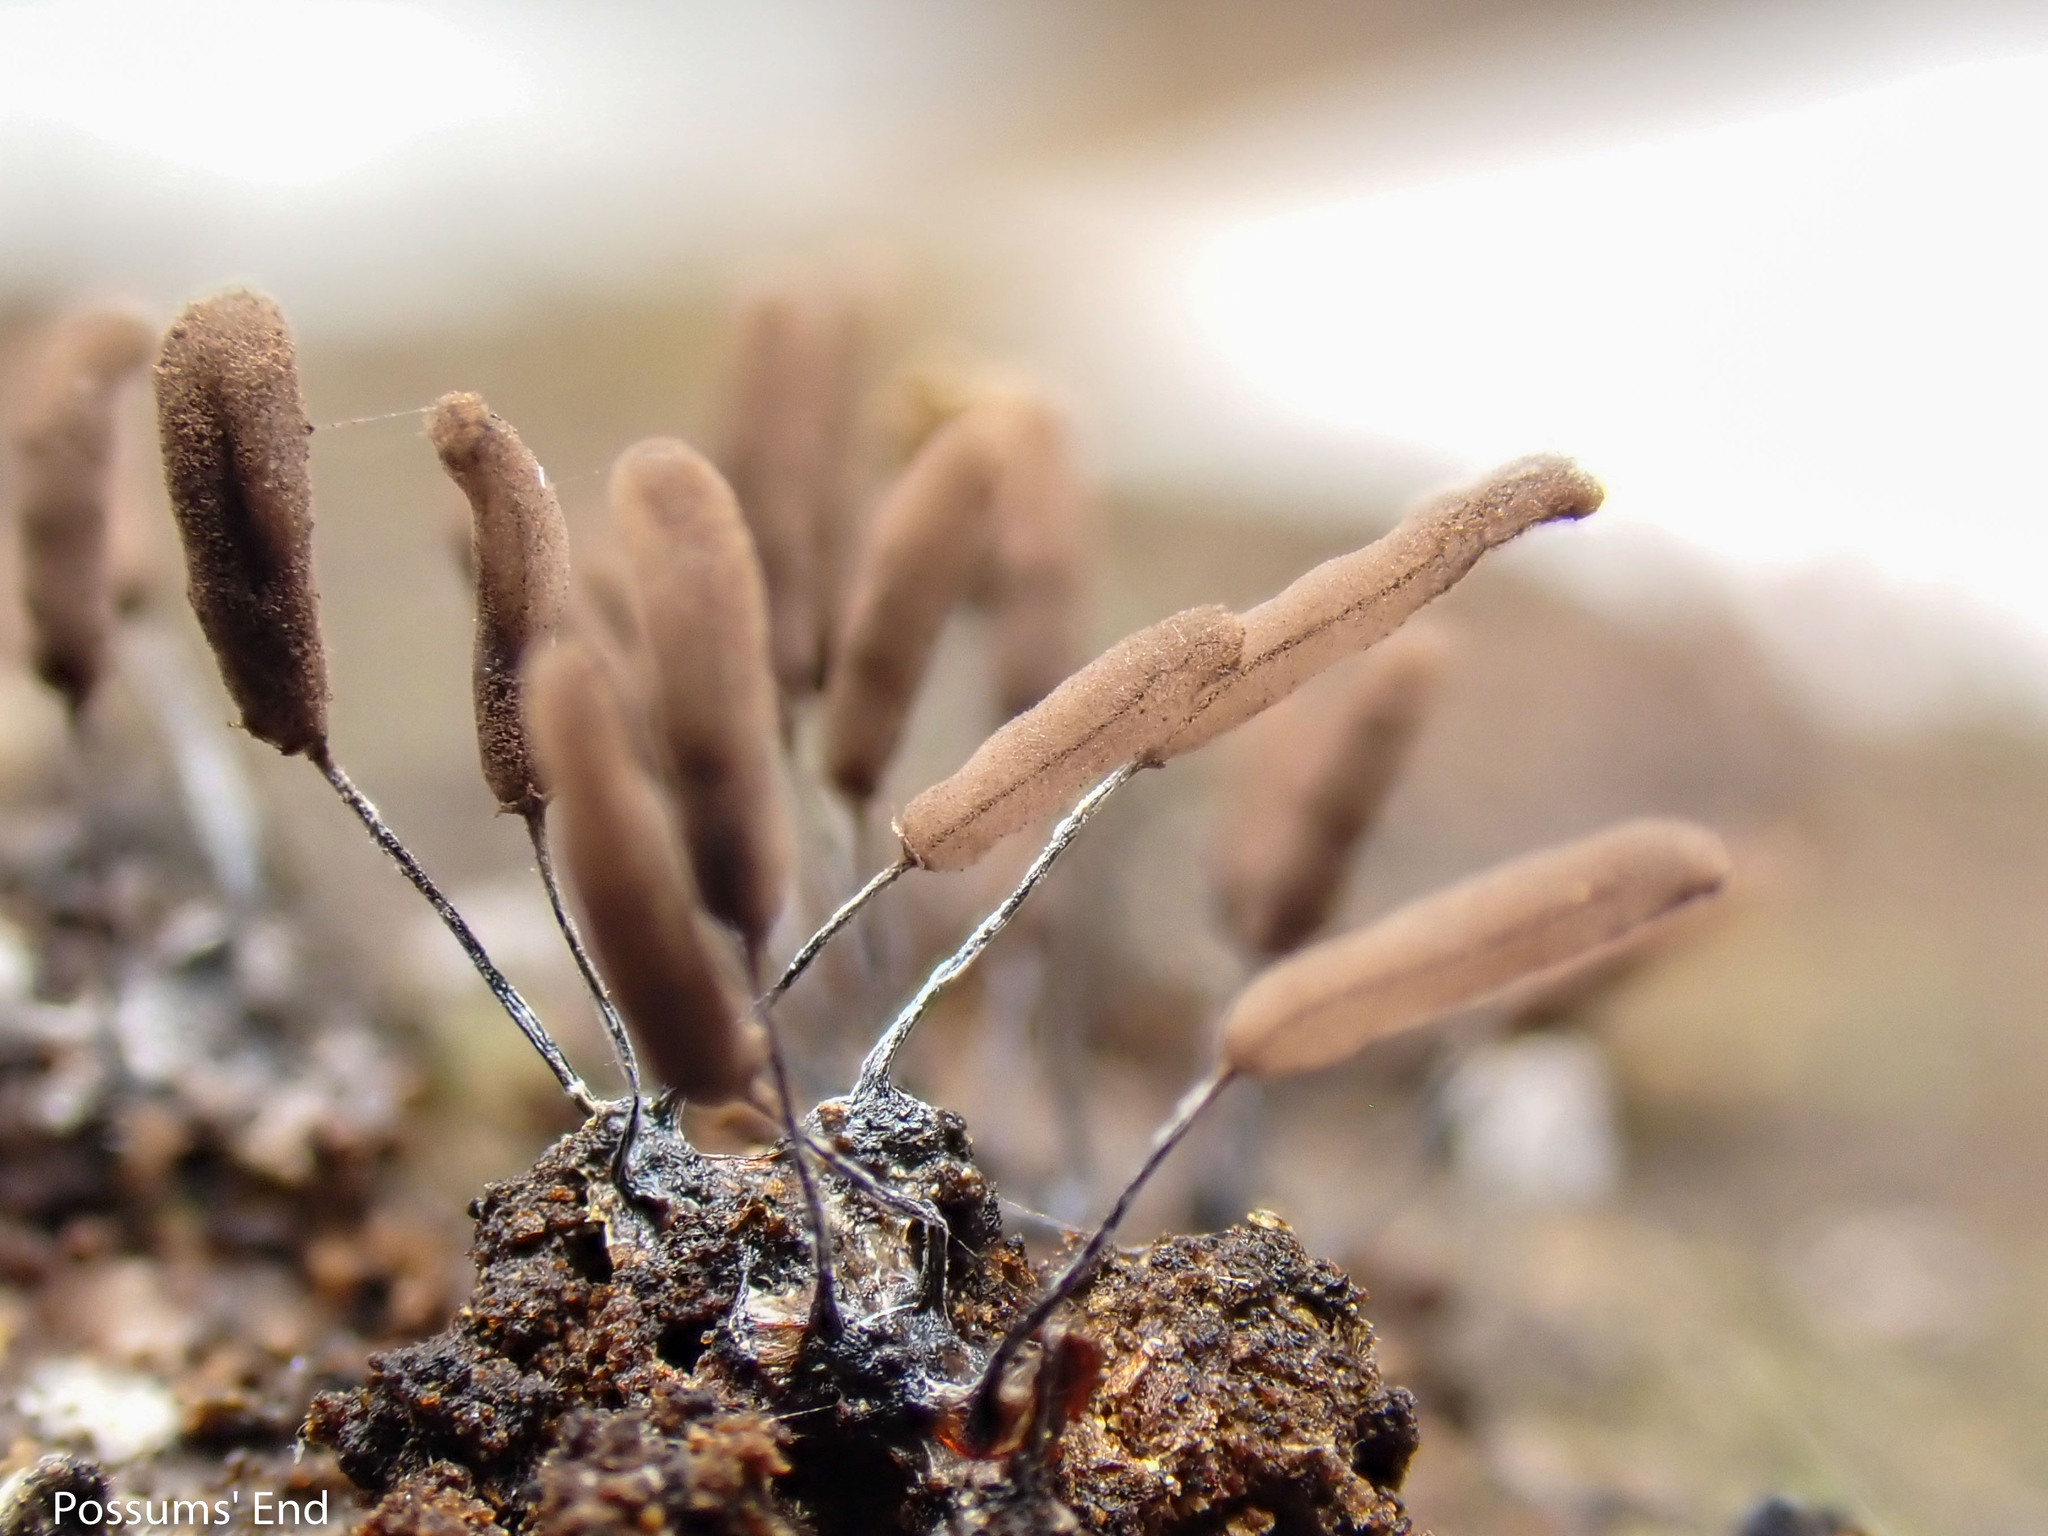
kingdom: Protozoa
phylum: Mycetozoa
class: Myxomycetes
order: Stemonitidales
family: Stemonitidaceae
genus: Stemonitopsis
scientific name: Stemonitopsis typhina
